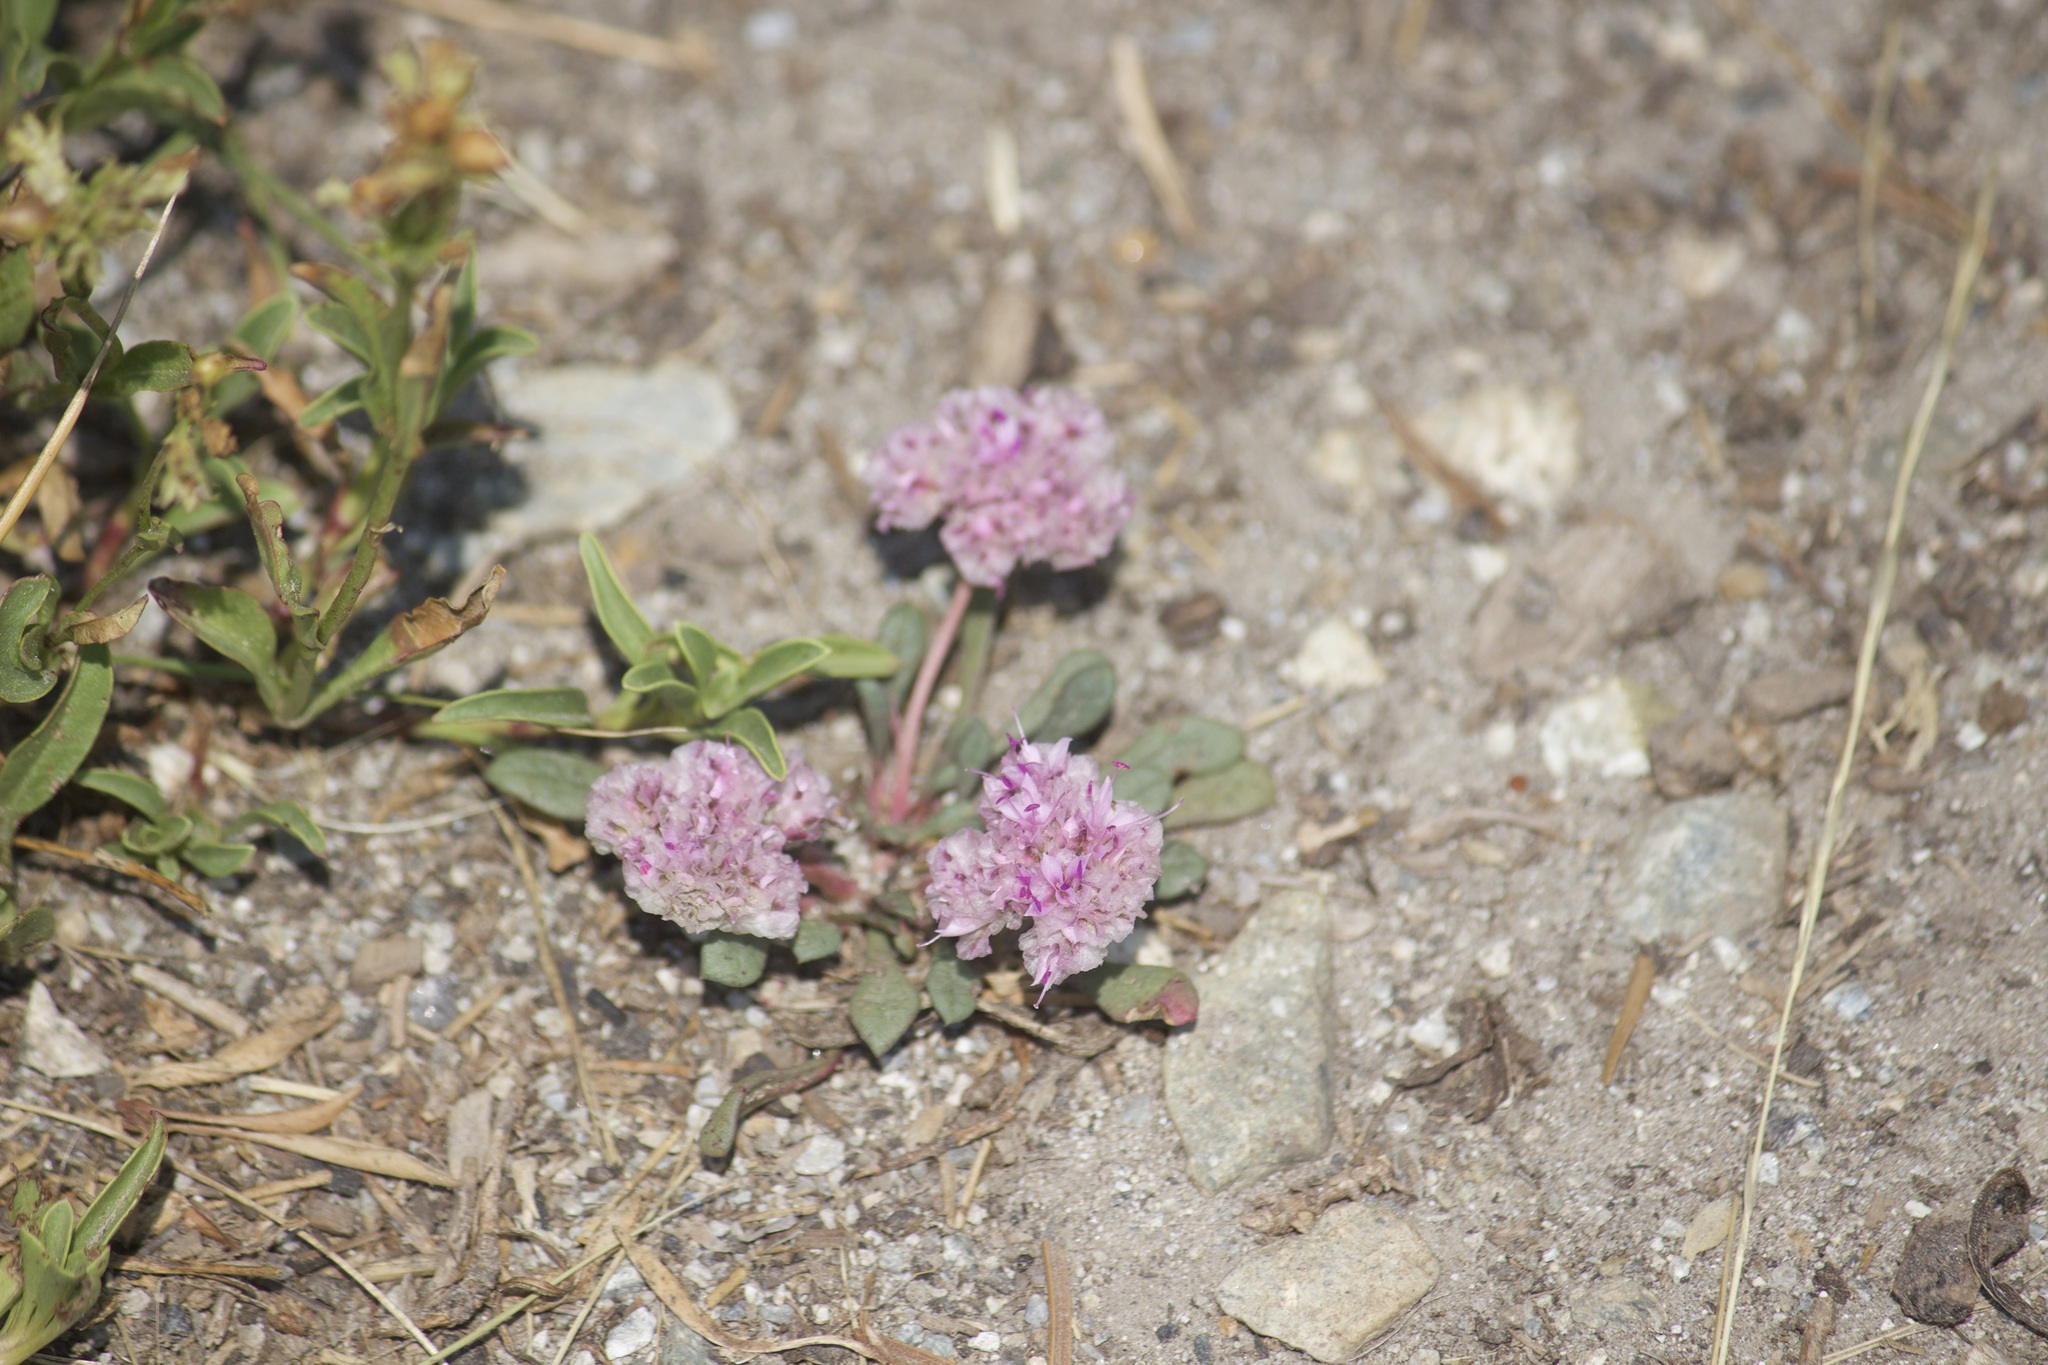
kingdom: Plantae
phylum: Tracheophyta
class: Magnoliopsida
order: Caryophyllales
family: Montiaceae
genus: Calyptridium
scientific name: Calyptridium monospermum
